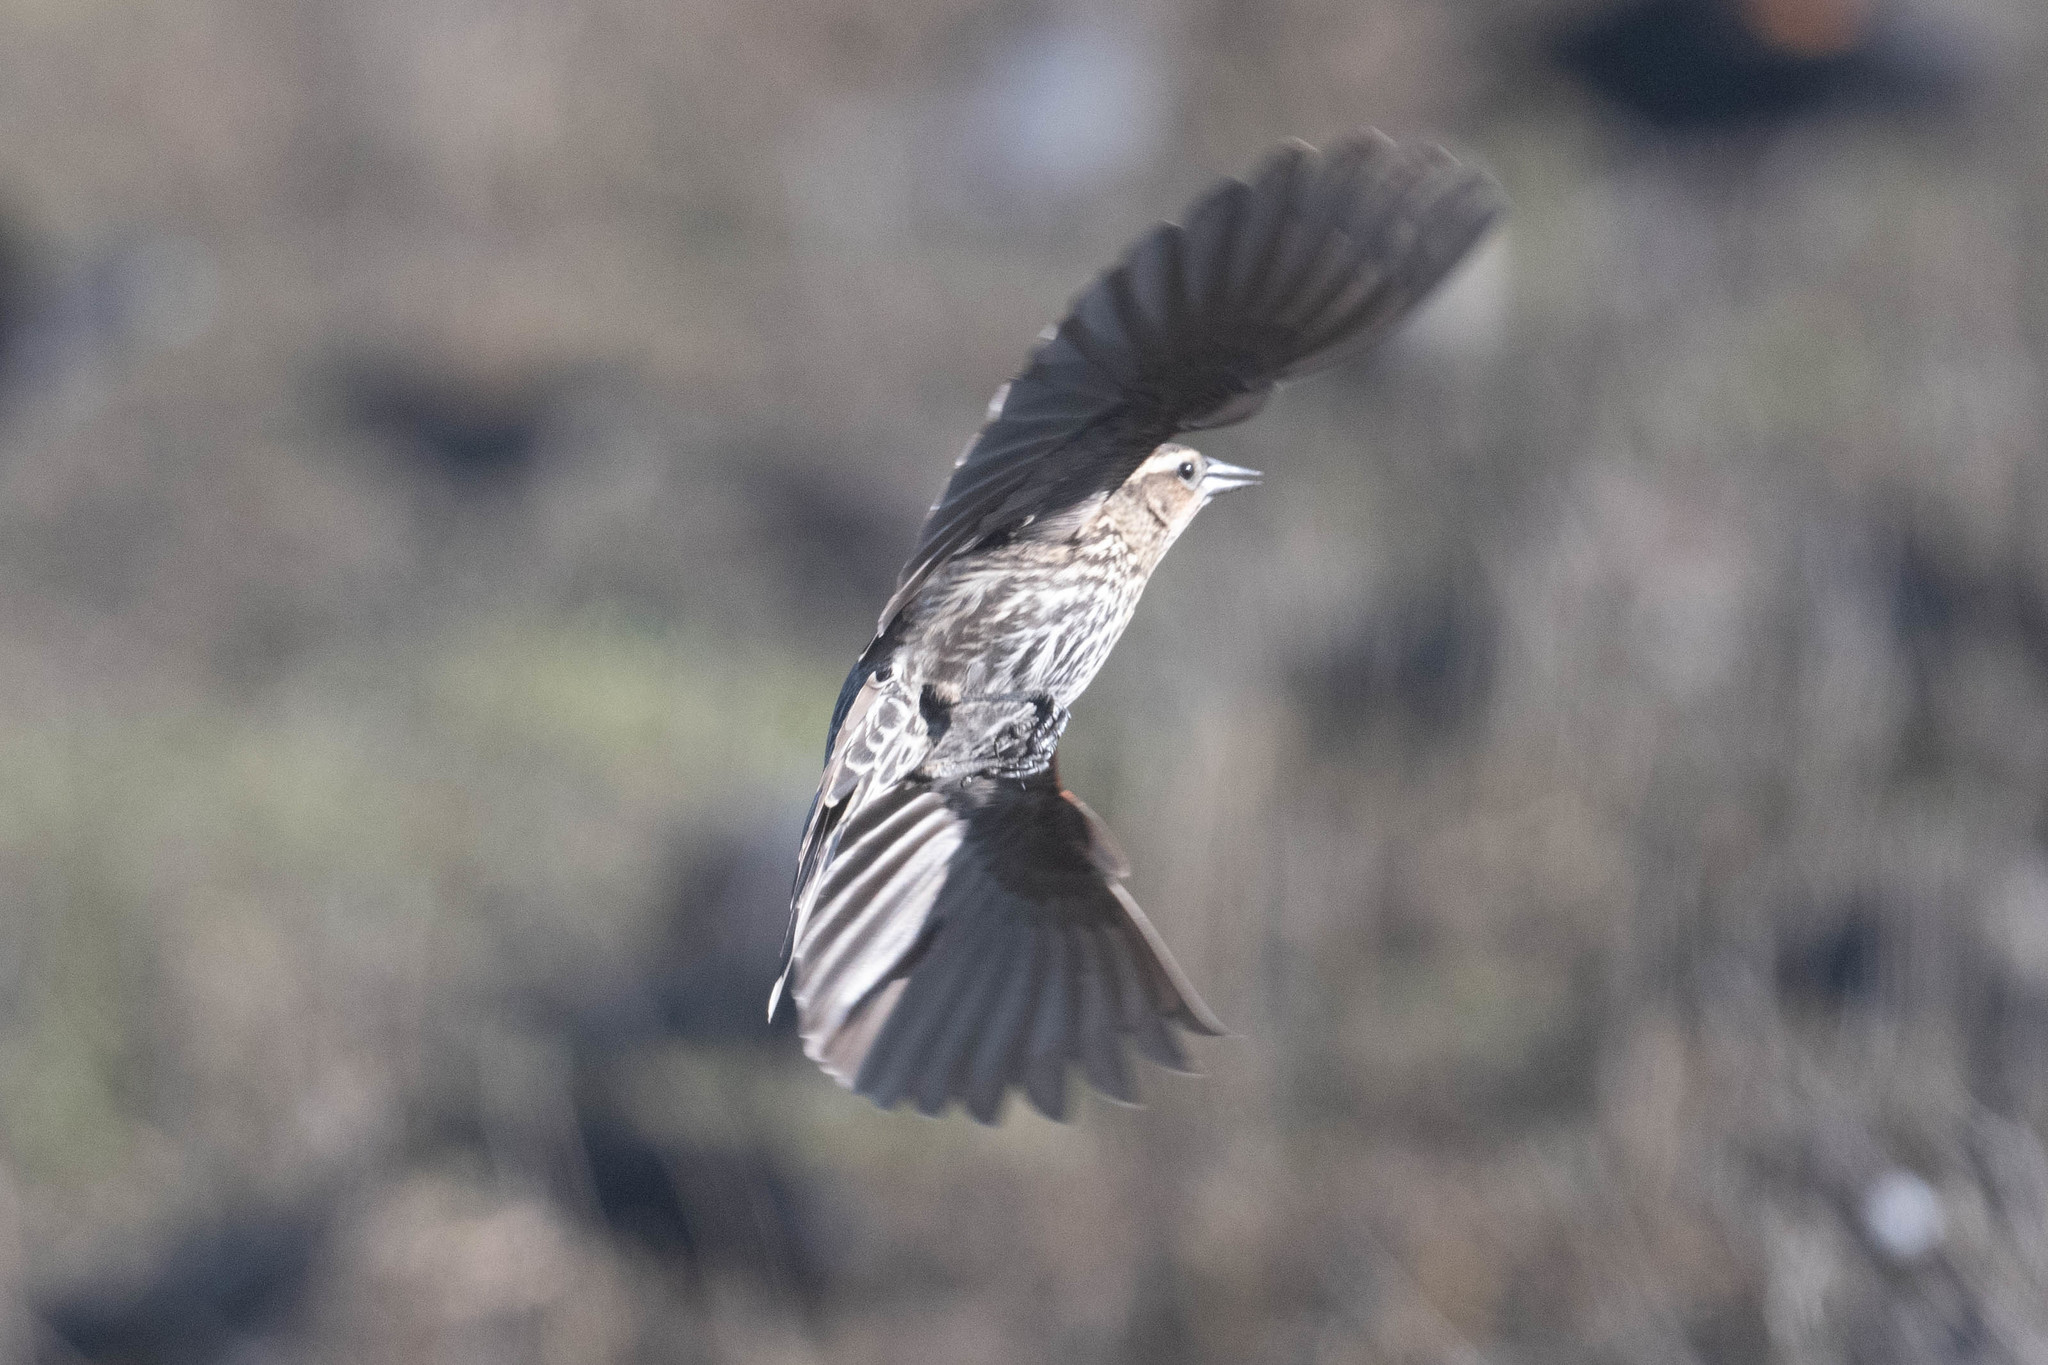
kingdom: Animalia
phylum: Chordata
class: Aves
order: Passeriformes
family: Icteridae
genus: Agelaius
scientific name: Agelaius phoeniceus
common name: Red-winged blackbird
